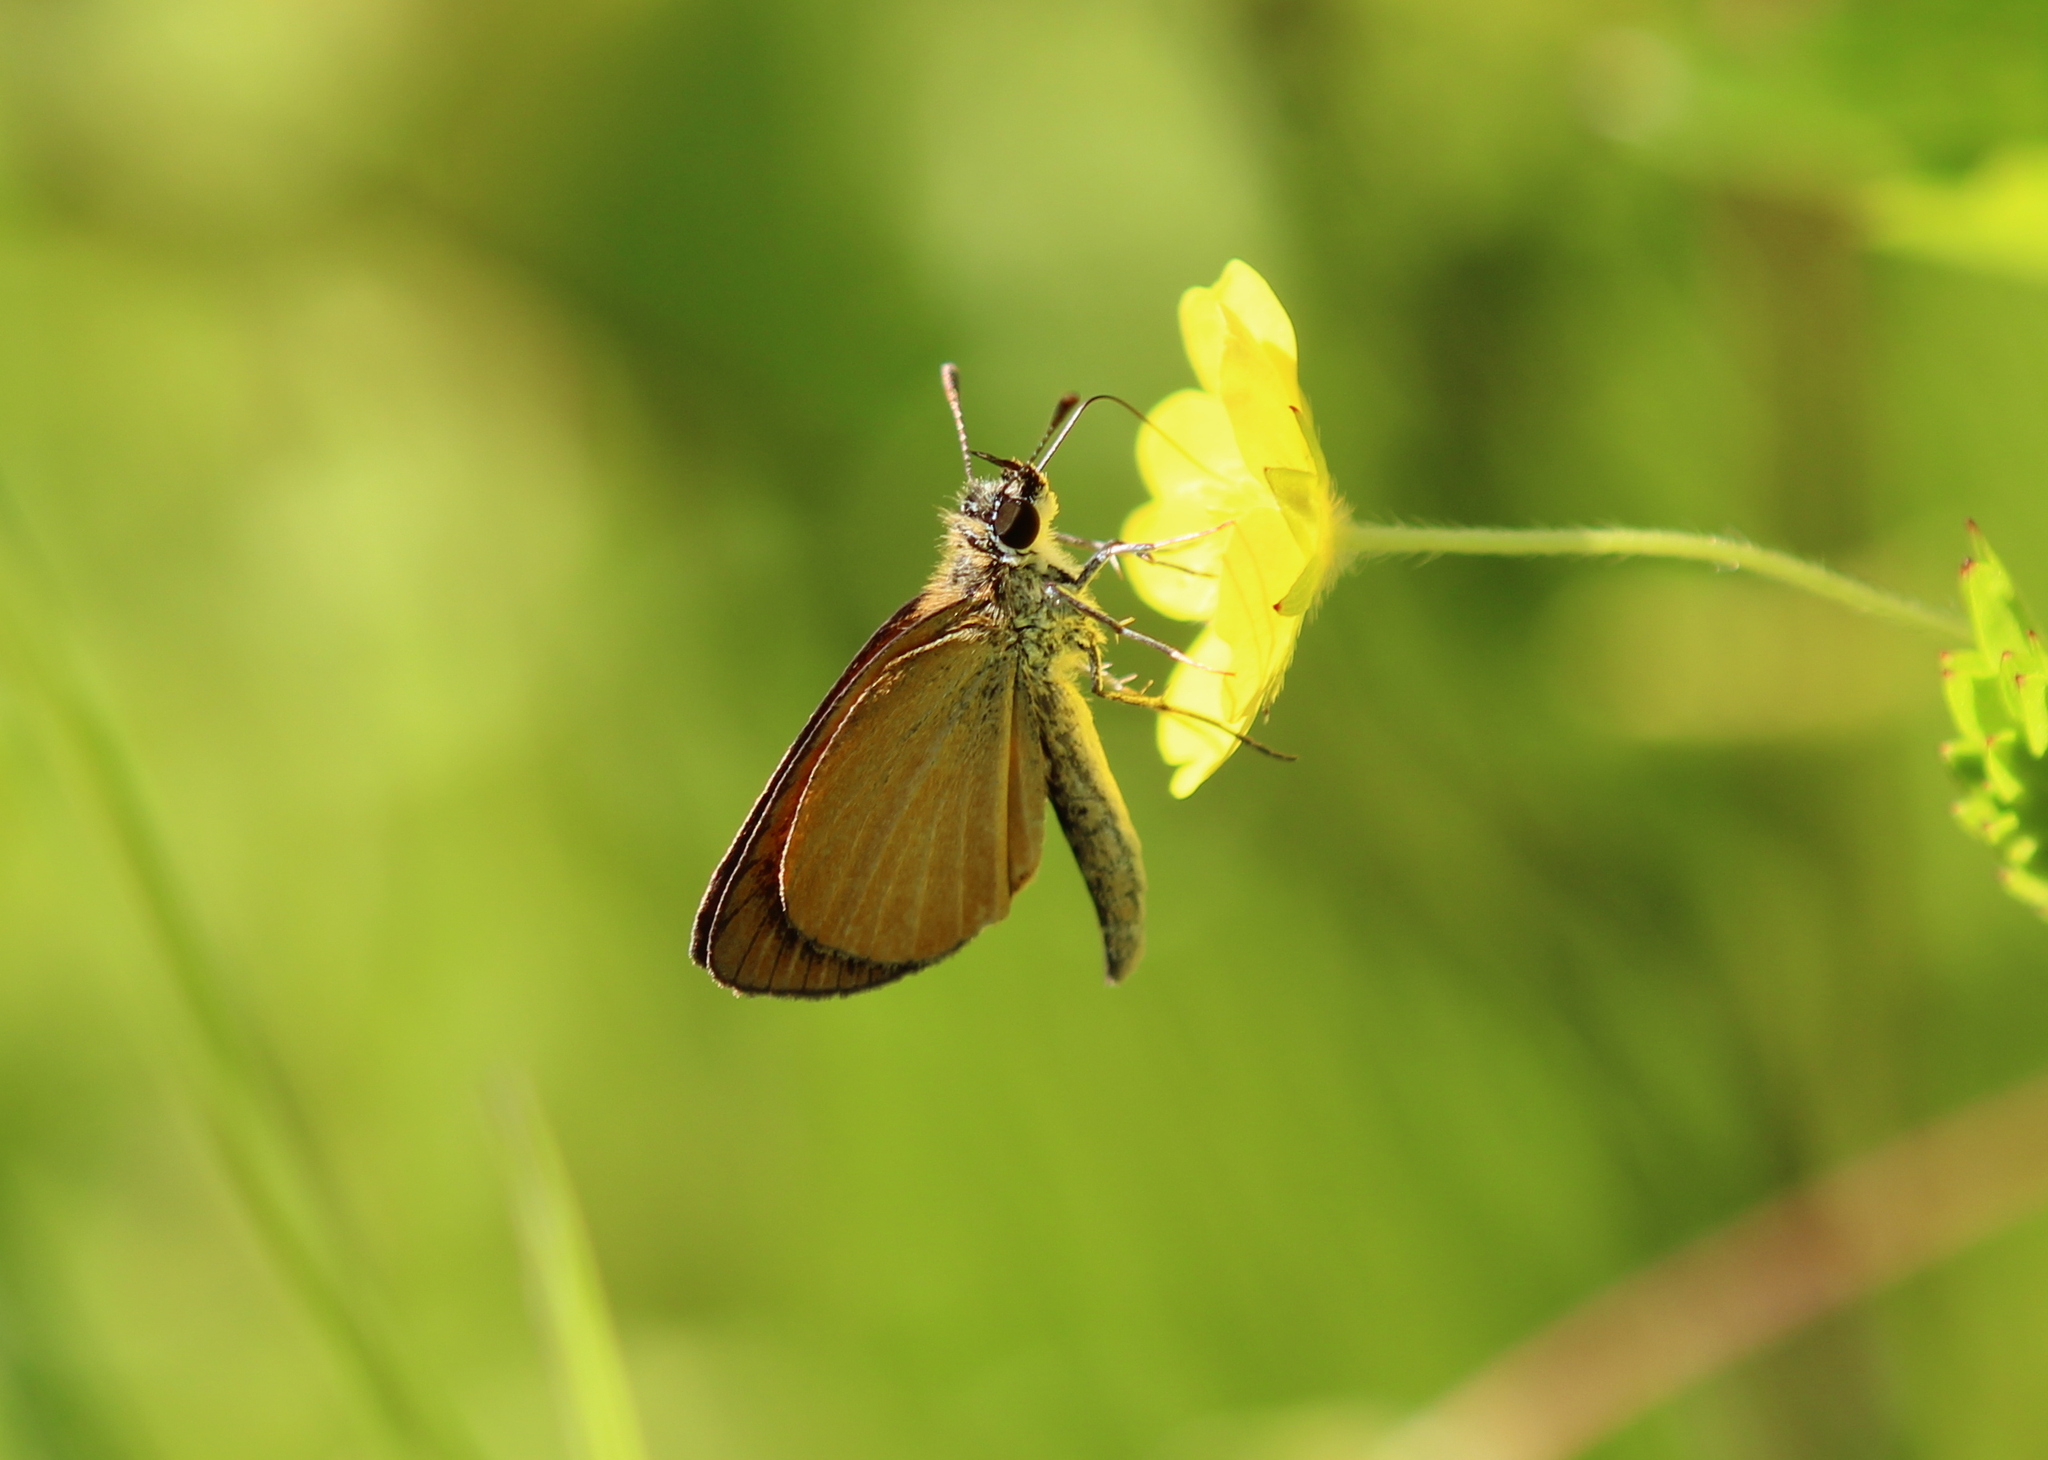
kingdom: Animalia
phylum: Arthropoda
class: Insecta
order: Lepidoptera
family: Hesperiidae
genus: Ancyloxypha
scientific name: Ancyloxypha numitor
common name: Least skipper
